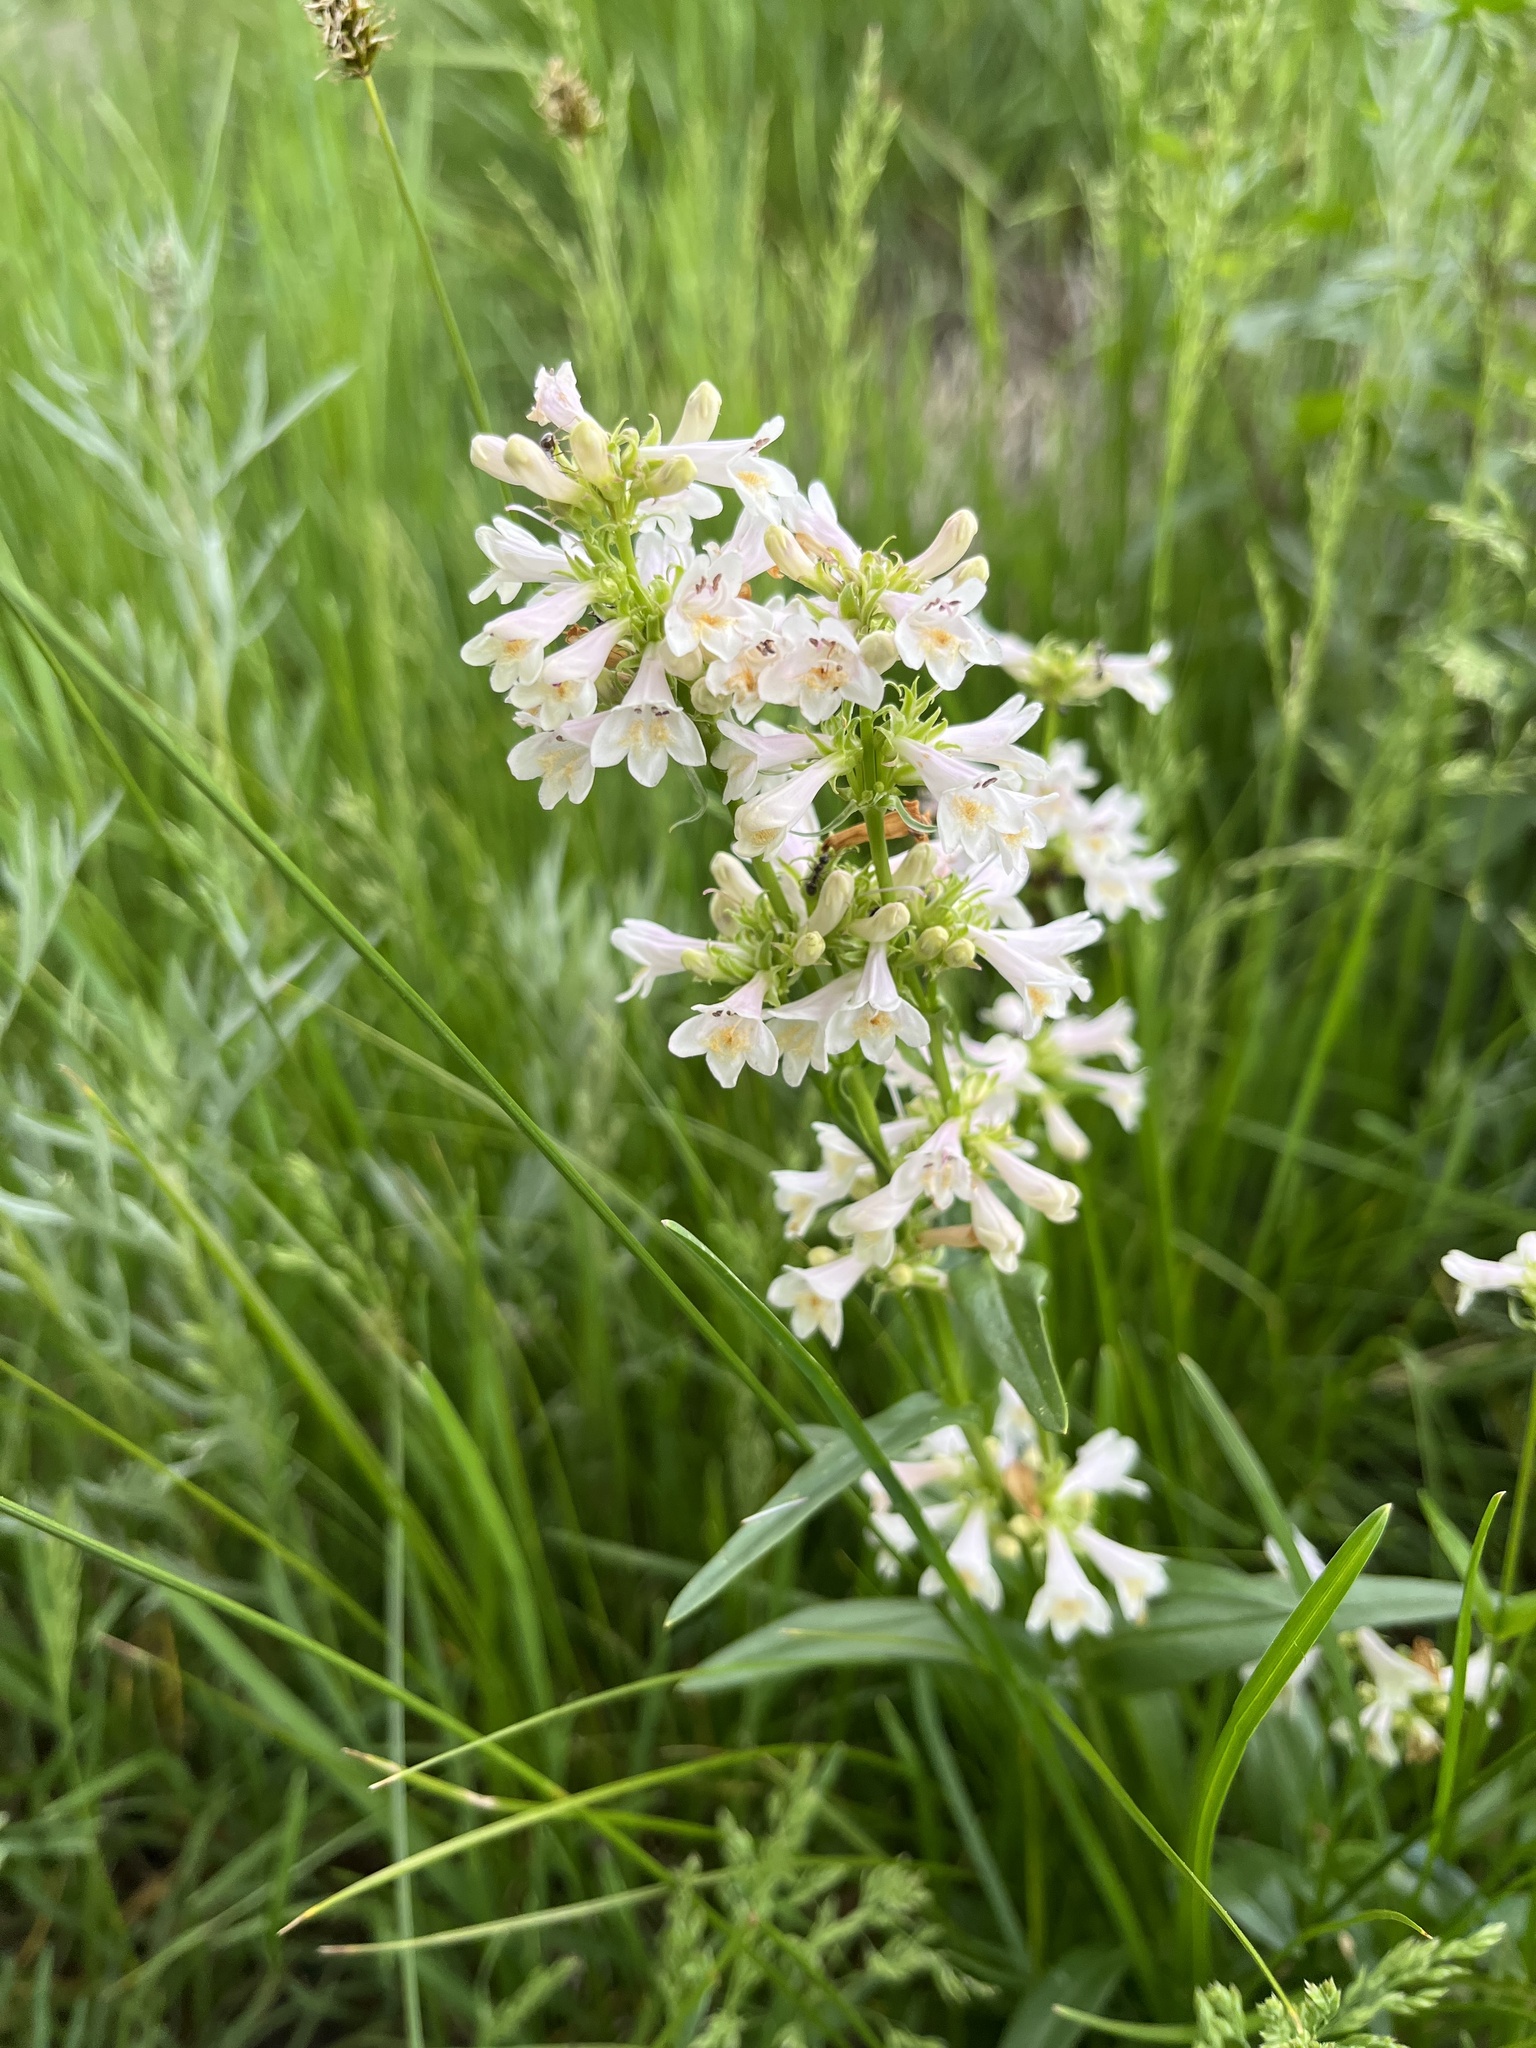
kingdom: Plantae
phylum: Tracheophyta
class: Magnoliopsida
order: Lamiales
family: Plantaginaceae
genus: Penstemon
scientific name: Penstemon pratensis
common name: White-flower penstemon
